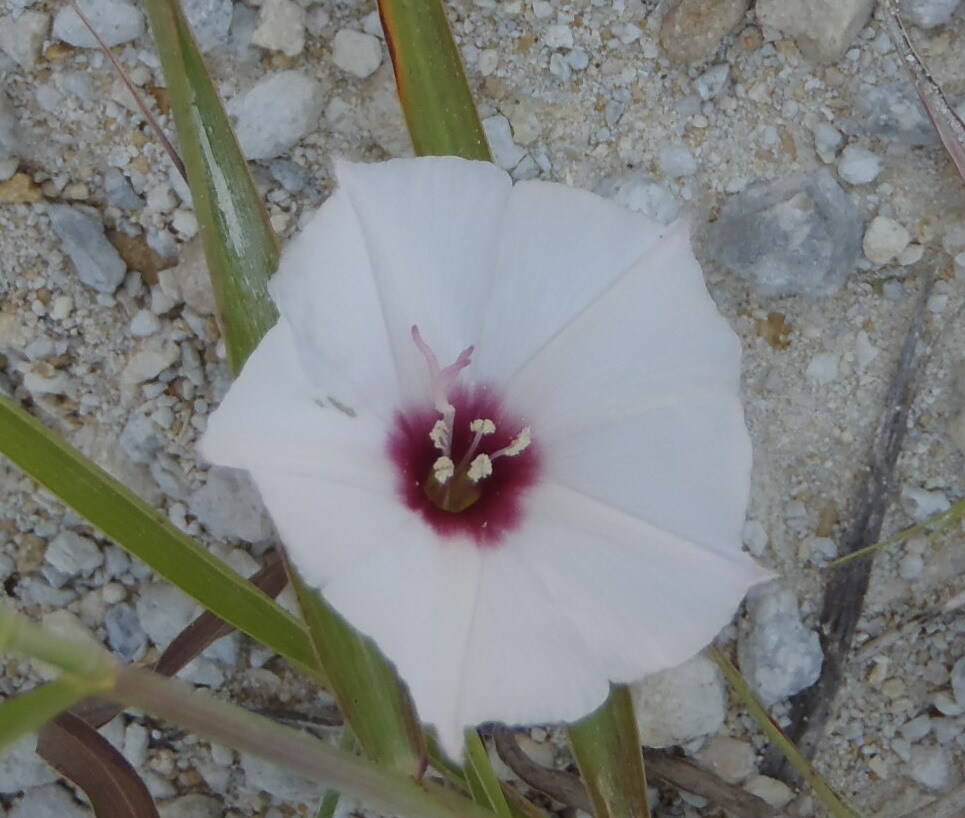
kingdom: Plantae
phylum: Tracheophyta
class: Magnoliopsida
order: Solanales
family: Convolvulaceae
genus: Convolvulus
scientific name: Convolvulus equitans
